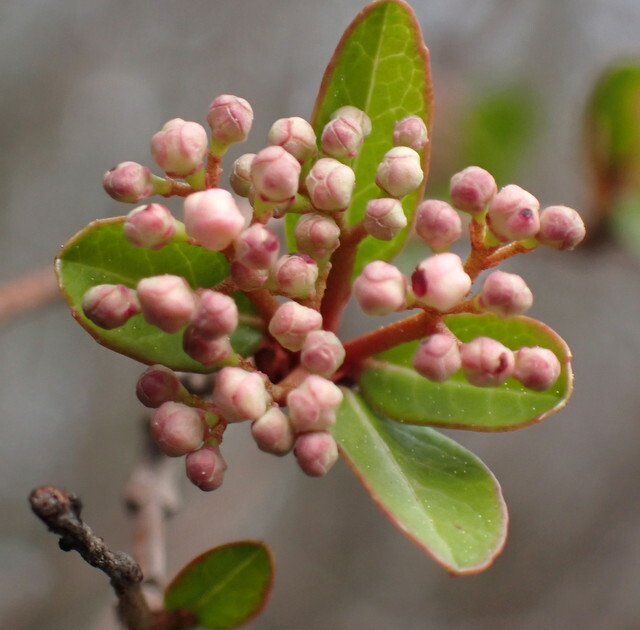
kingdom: Plantae
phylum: Tracheophyta
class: Magnoliopsida
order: Dipsacales
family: Viburnaceae
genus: Viburnum
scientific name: Viburnum obovatum
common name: Walter's viburnum
